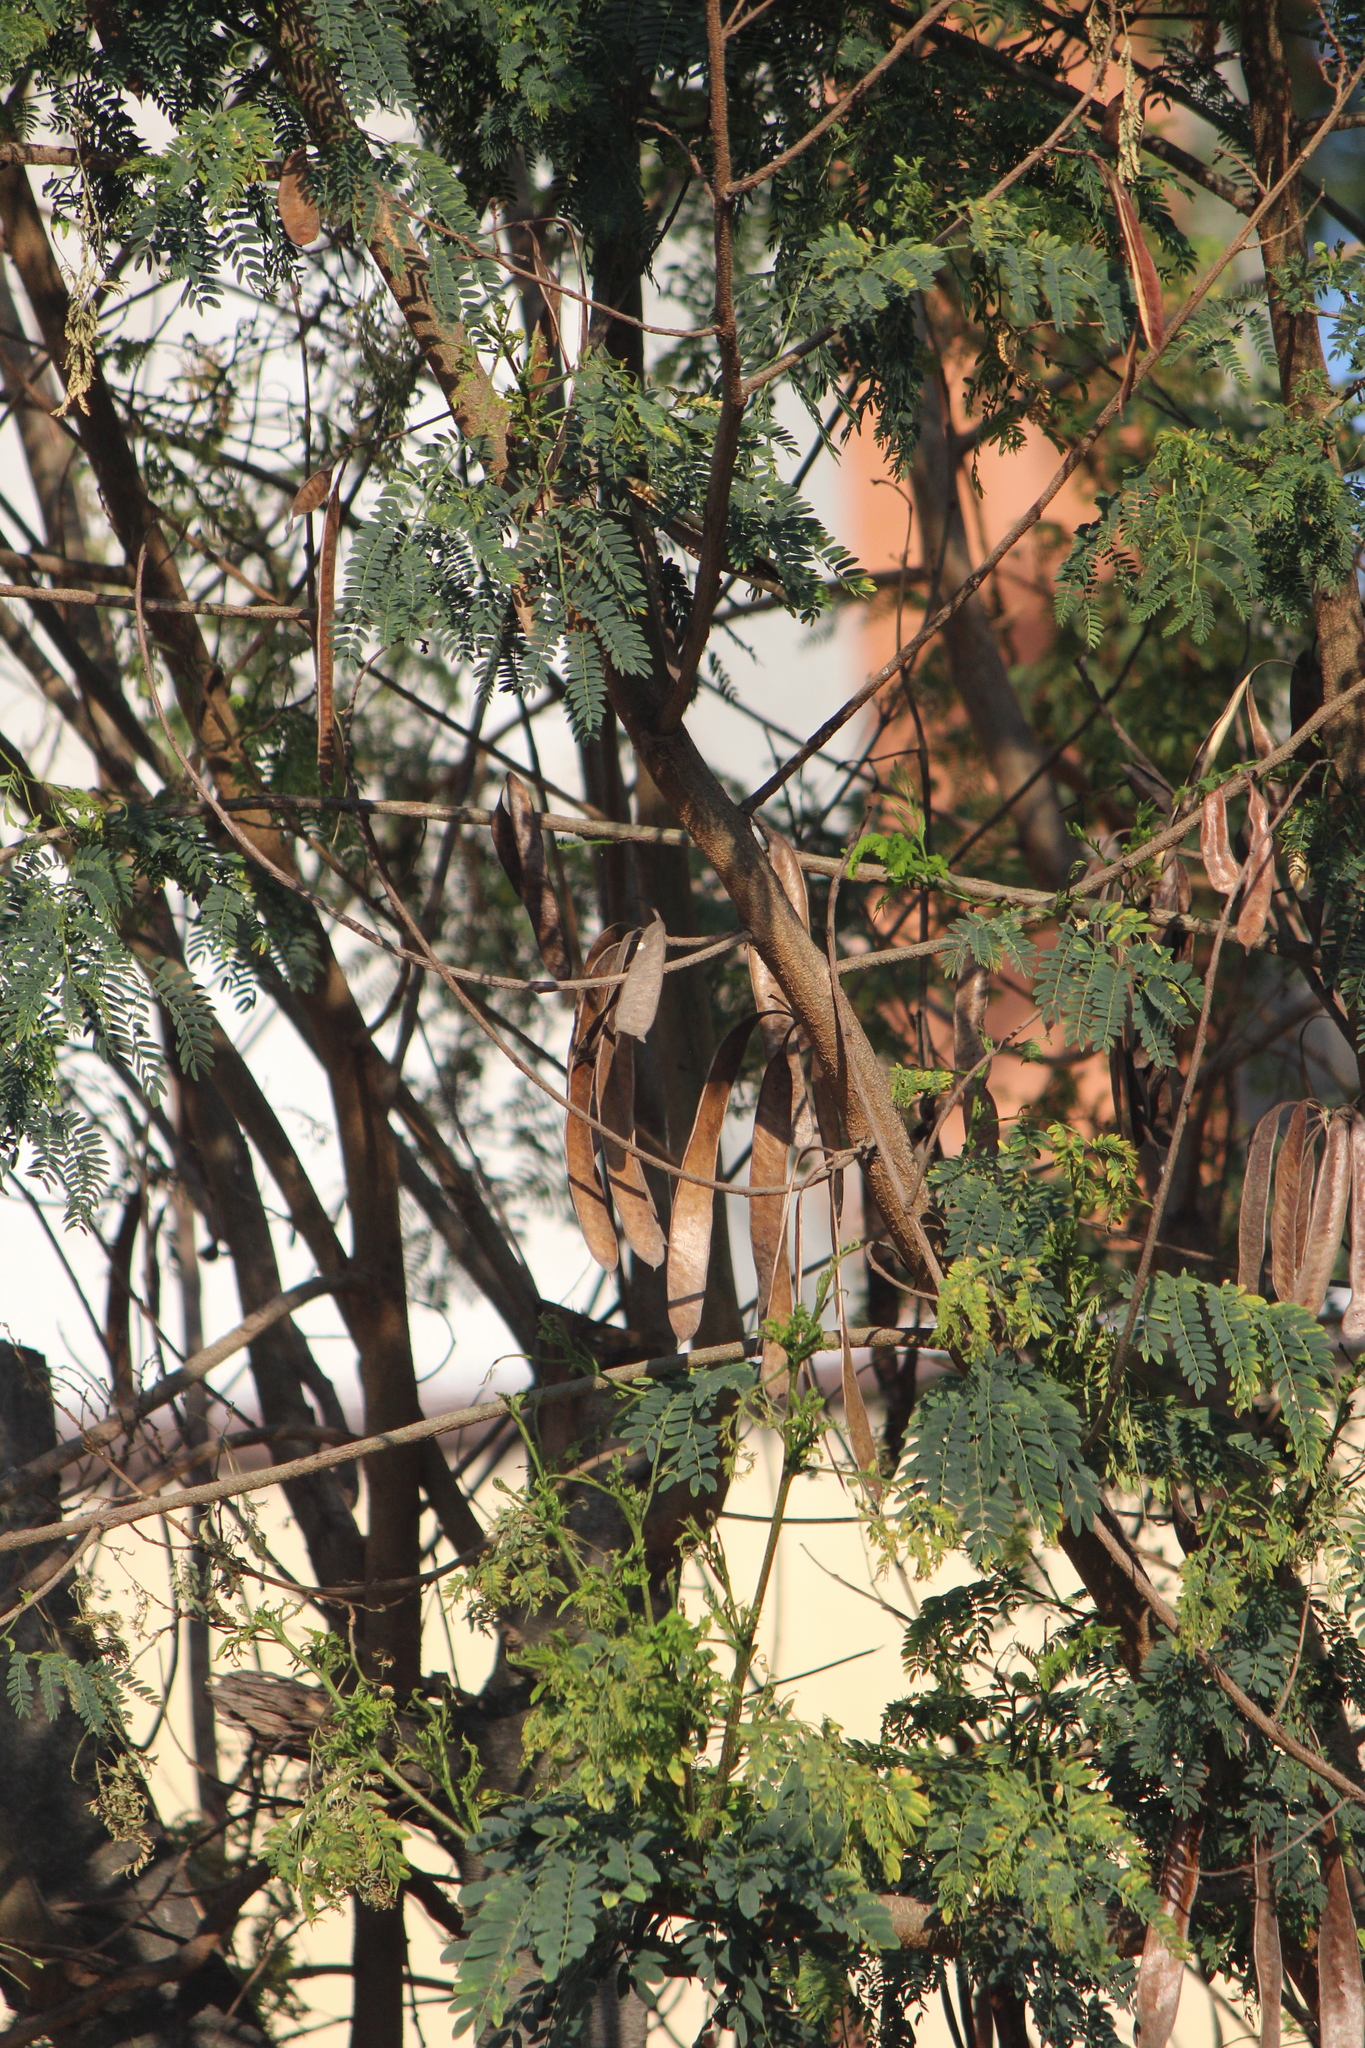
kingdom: Plantae
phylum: Tracheophyta
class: Magnoliopsida
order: Fabales
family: Fabaceae
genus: Leucaena
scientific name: Leucaena leucocephala
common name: White leadtree
